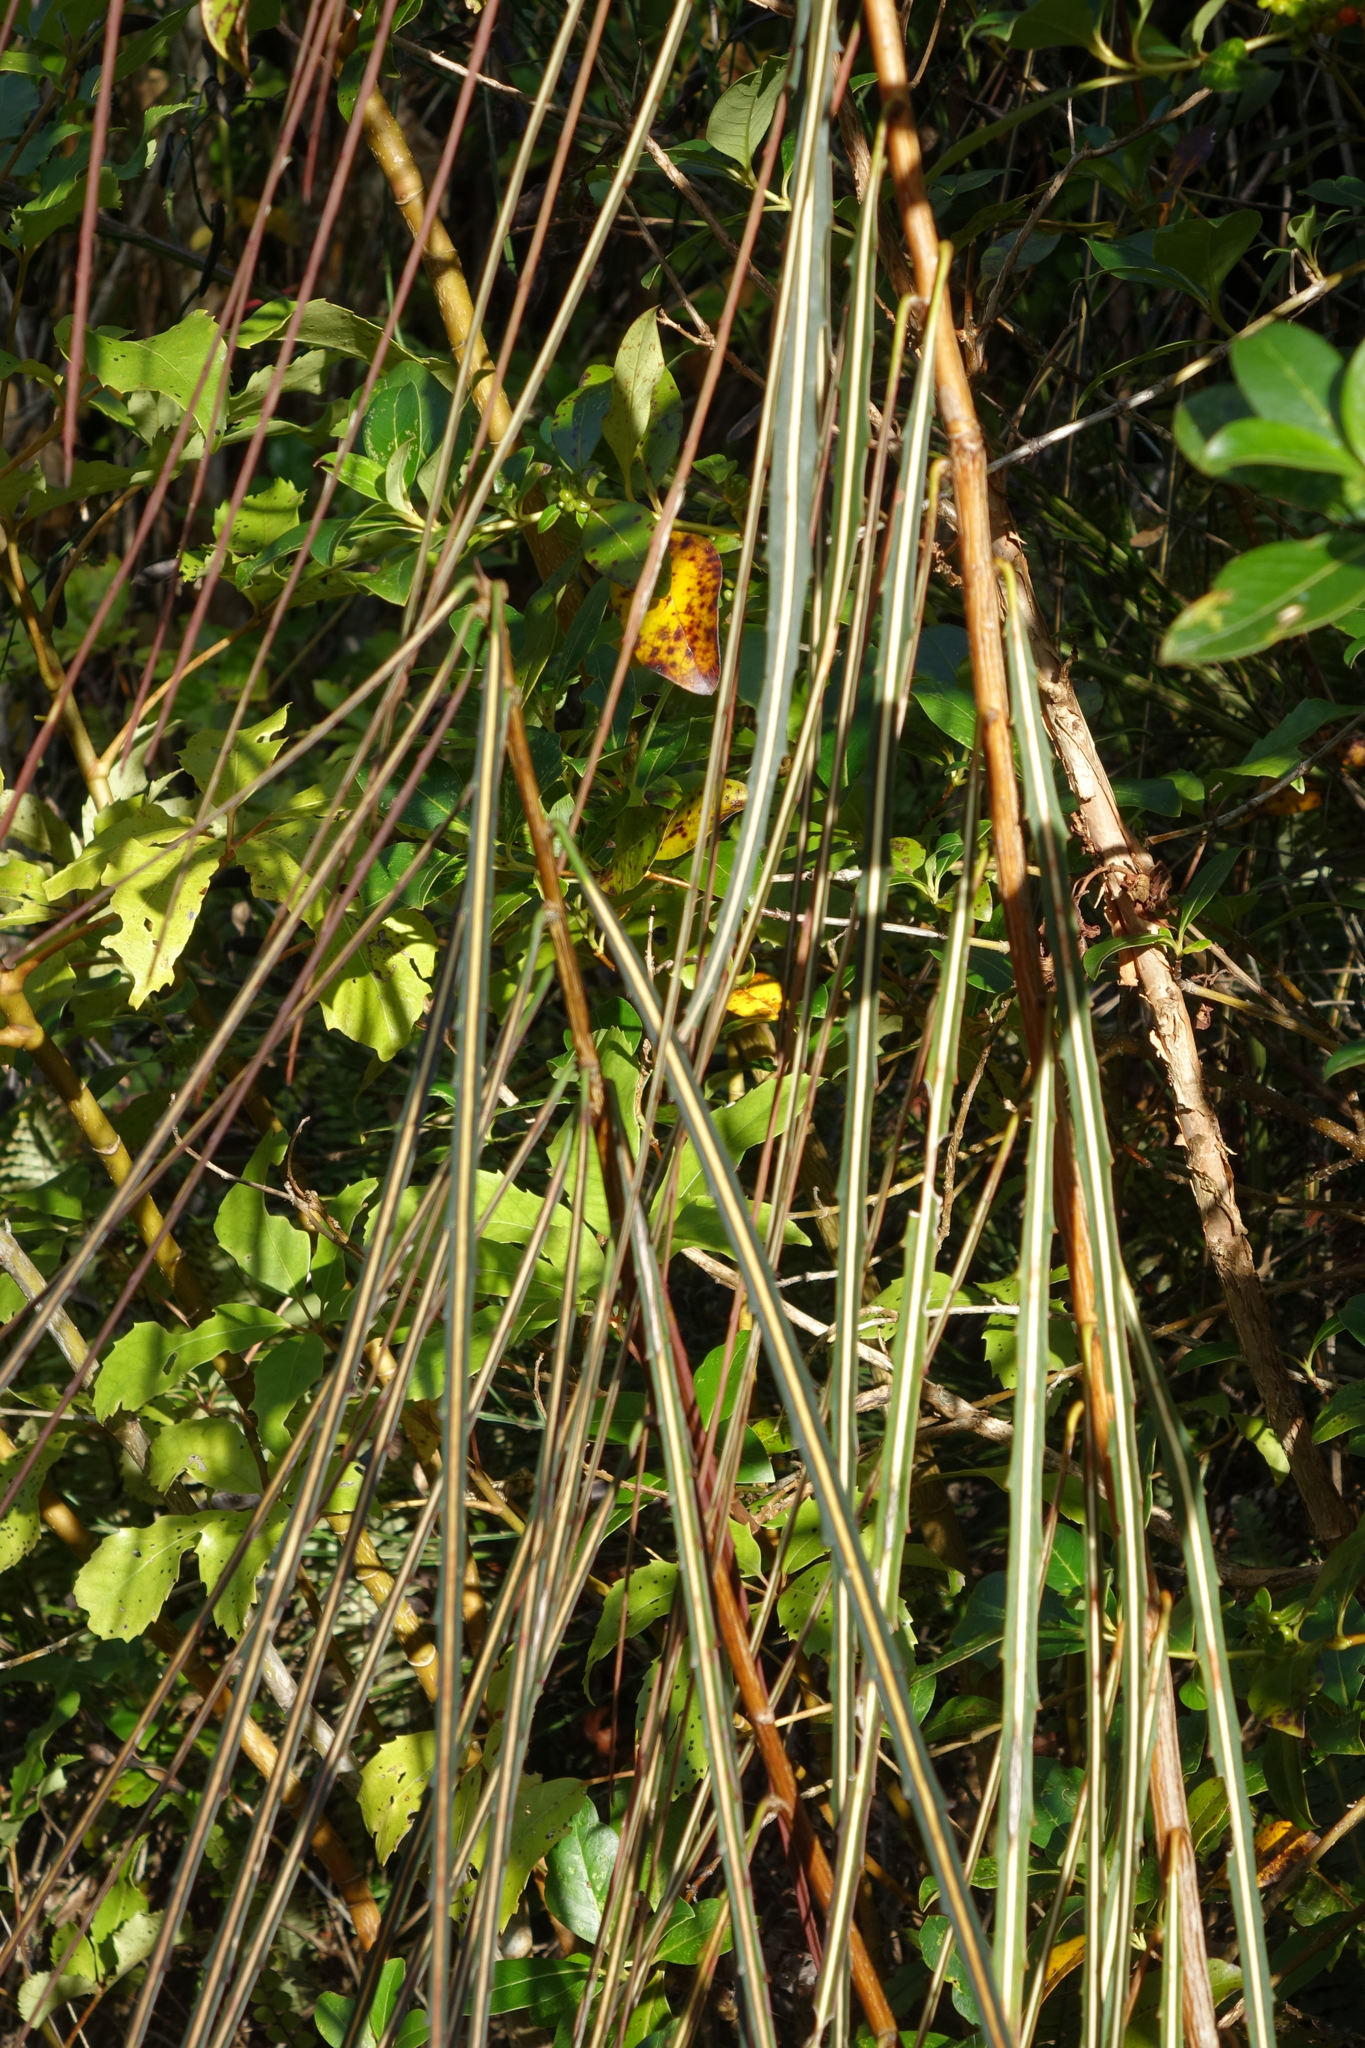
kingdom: Plantae
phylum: Tracheophyta
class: Magnoliopsida
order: Apiales
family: Araliaceae
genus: Pseudopanax
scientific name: Pseudopanax crassifolius
